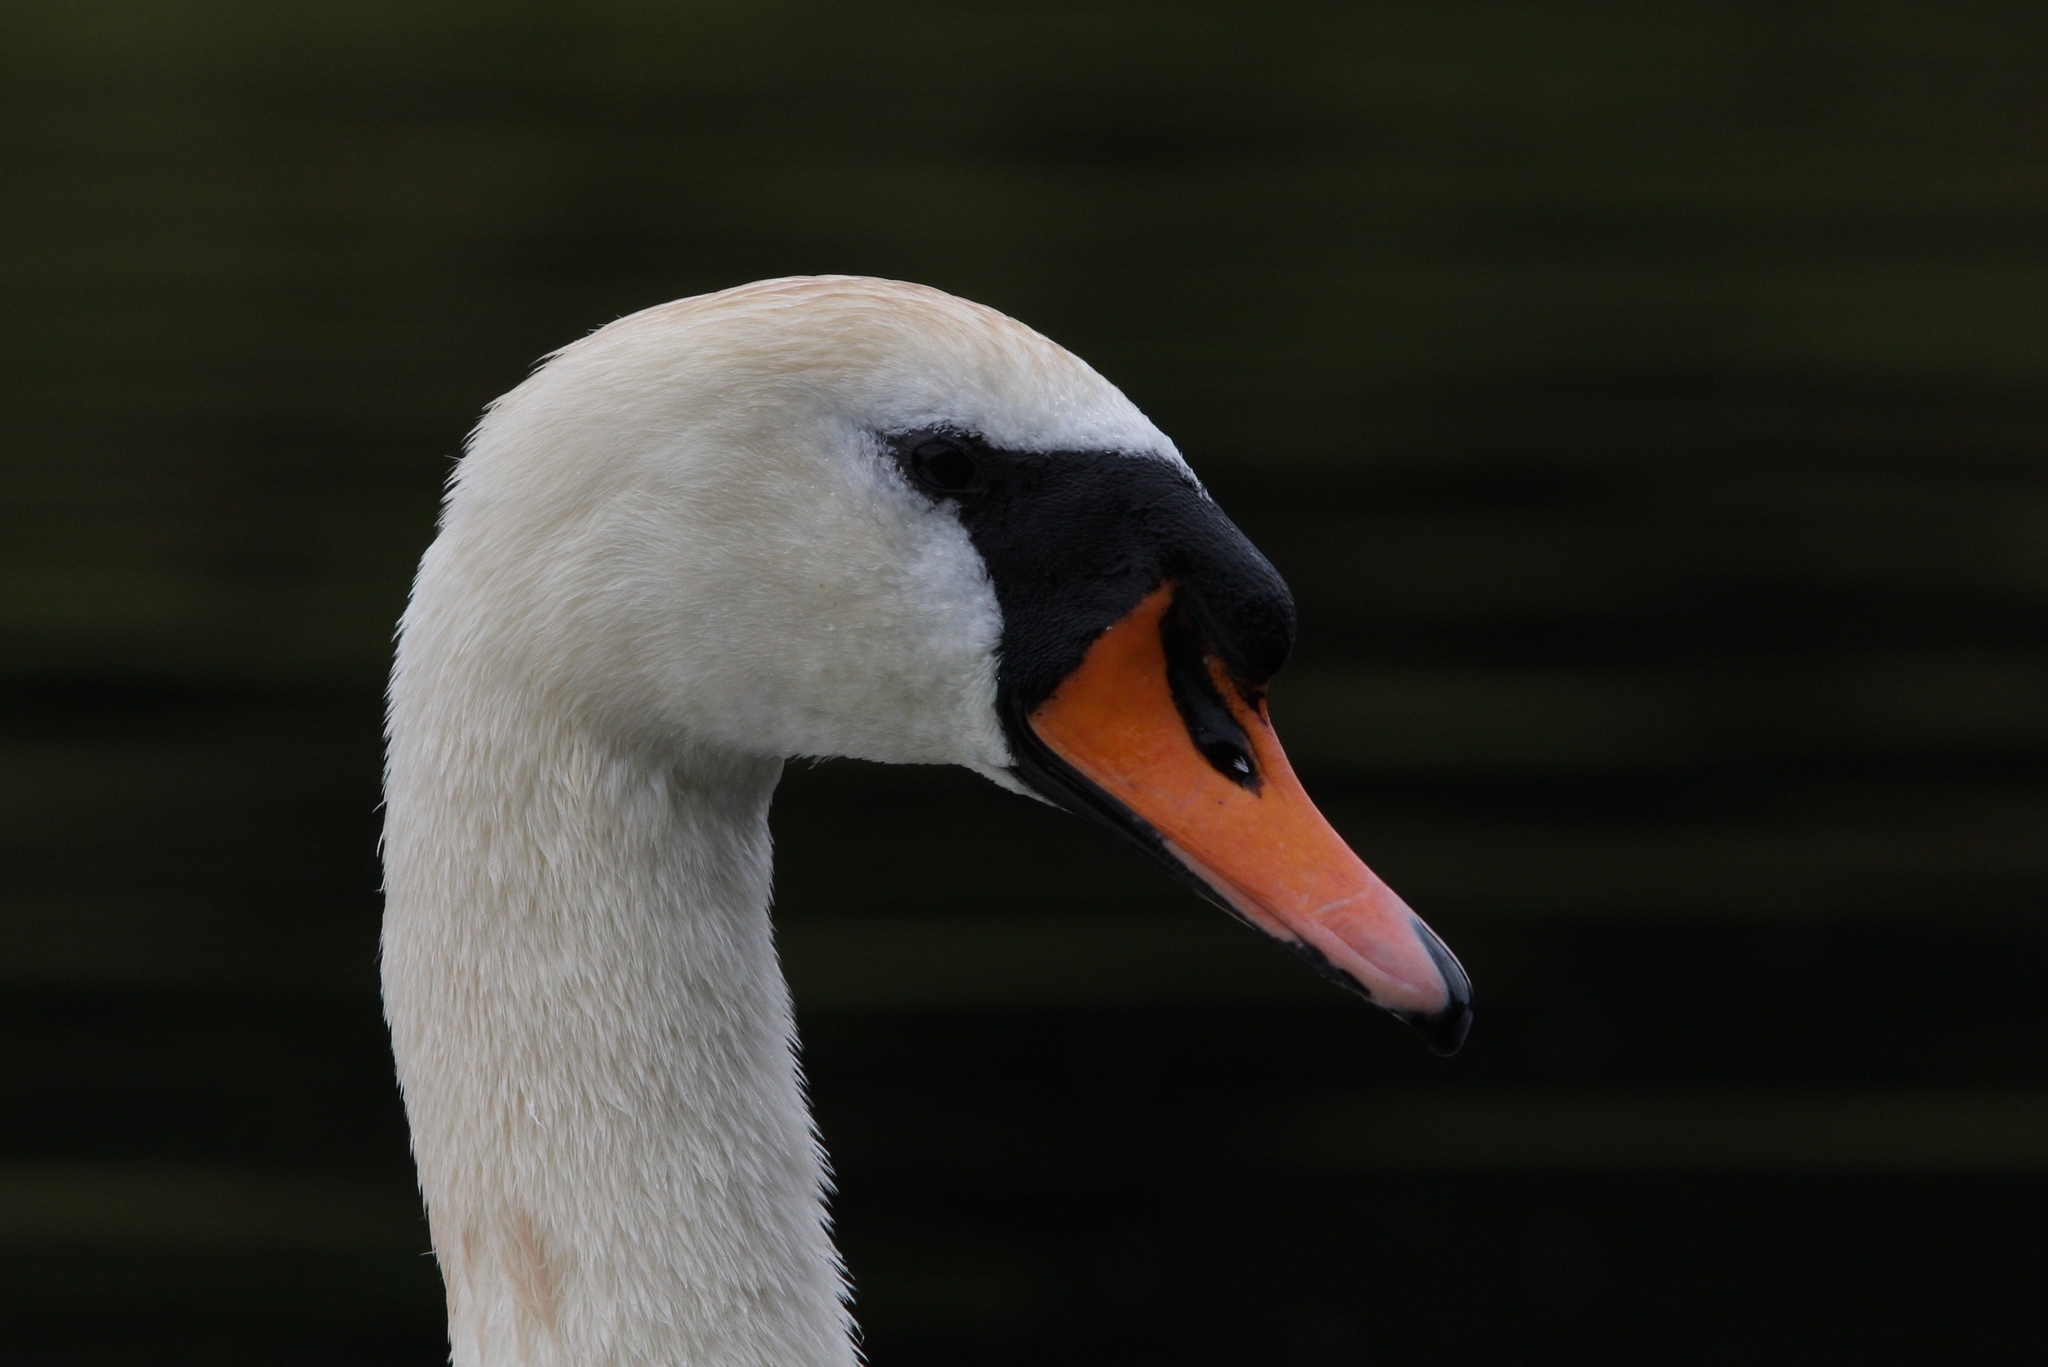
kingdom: Animalia
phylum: Chordata
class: Aves
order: Anseriformes
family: Anatidae
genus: Cygnus
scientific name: Cygnus olor
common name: Mute swan
